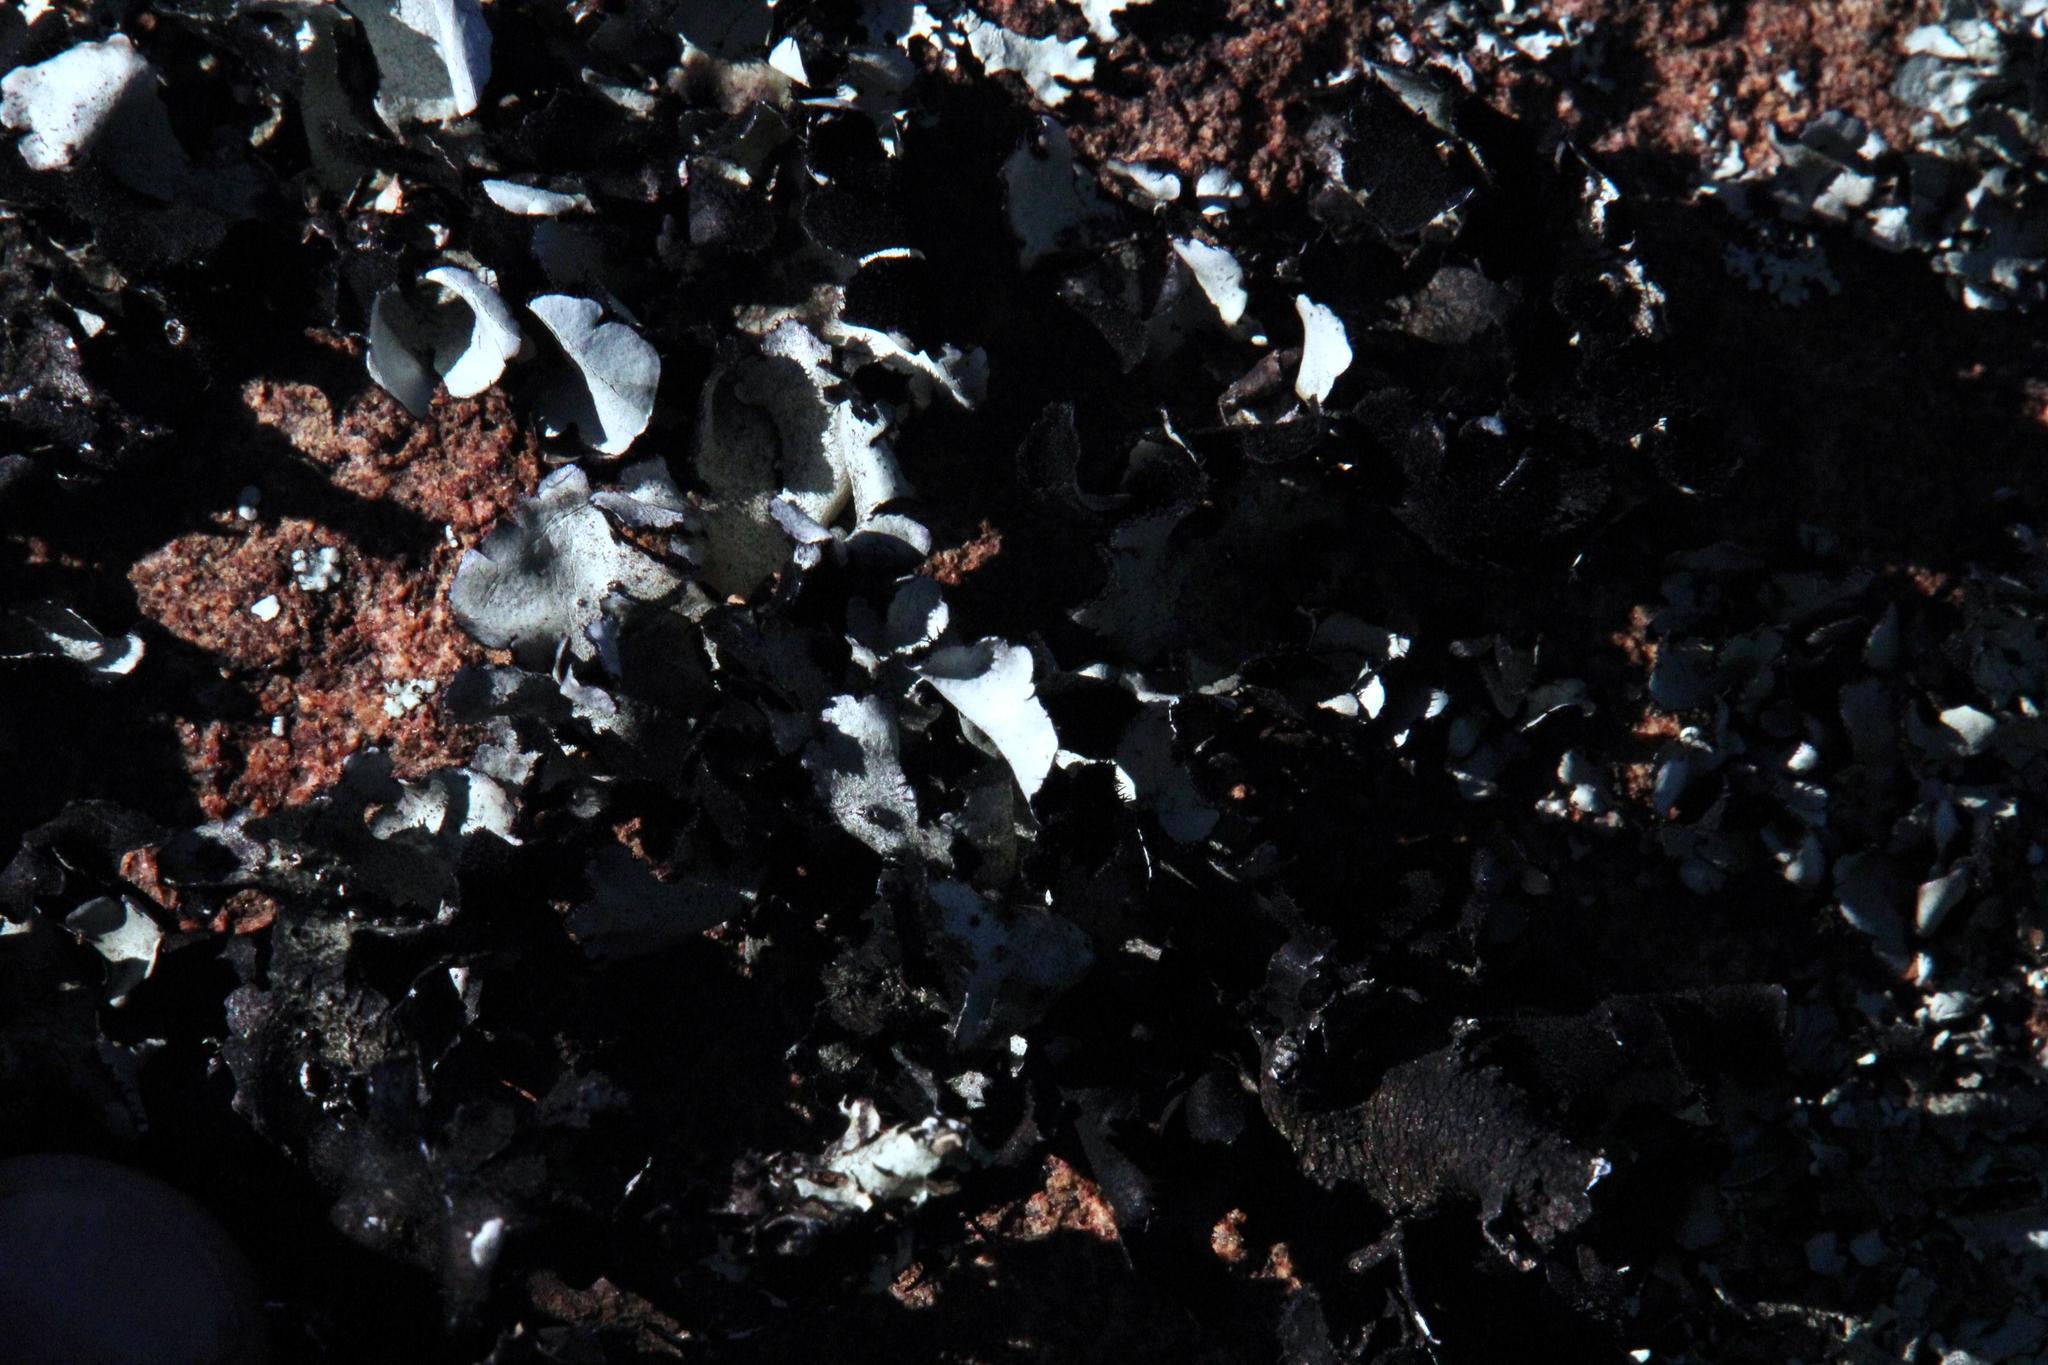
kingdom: Fungi
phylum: Ascomycota
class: Lecanoromycetes
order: Lecanorales
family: Parmeliaceae
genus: Xanthoparmelia
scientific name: Xanthoparmelia hottentotta
